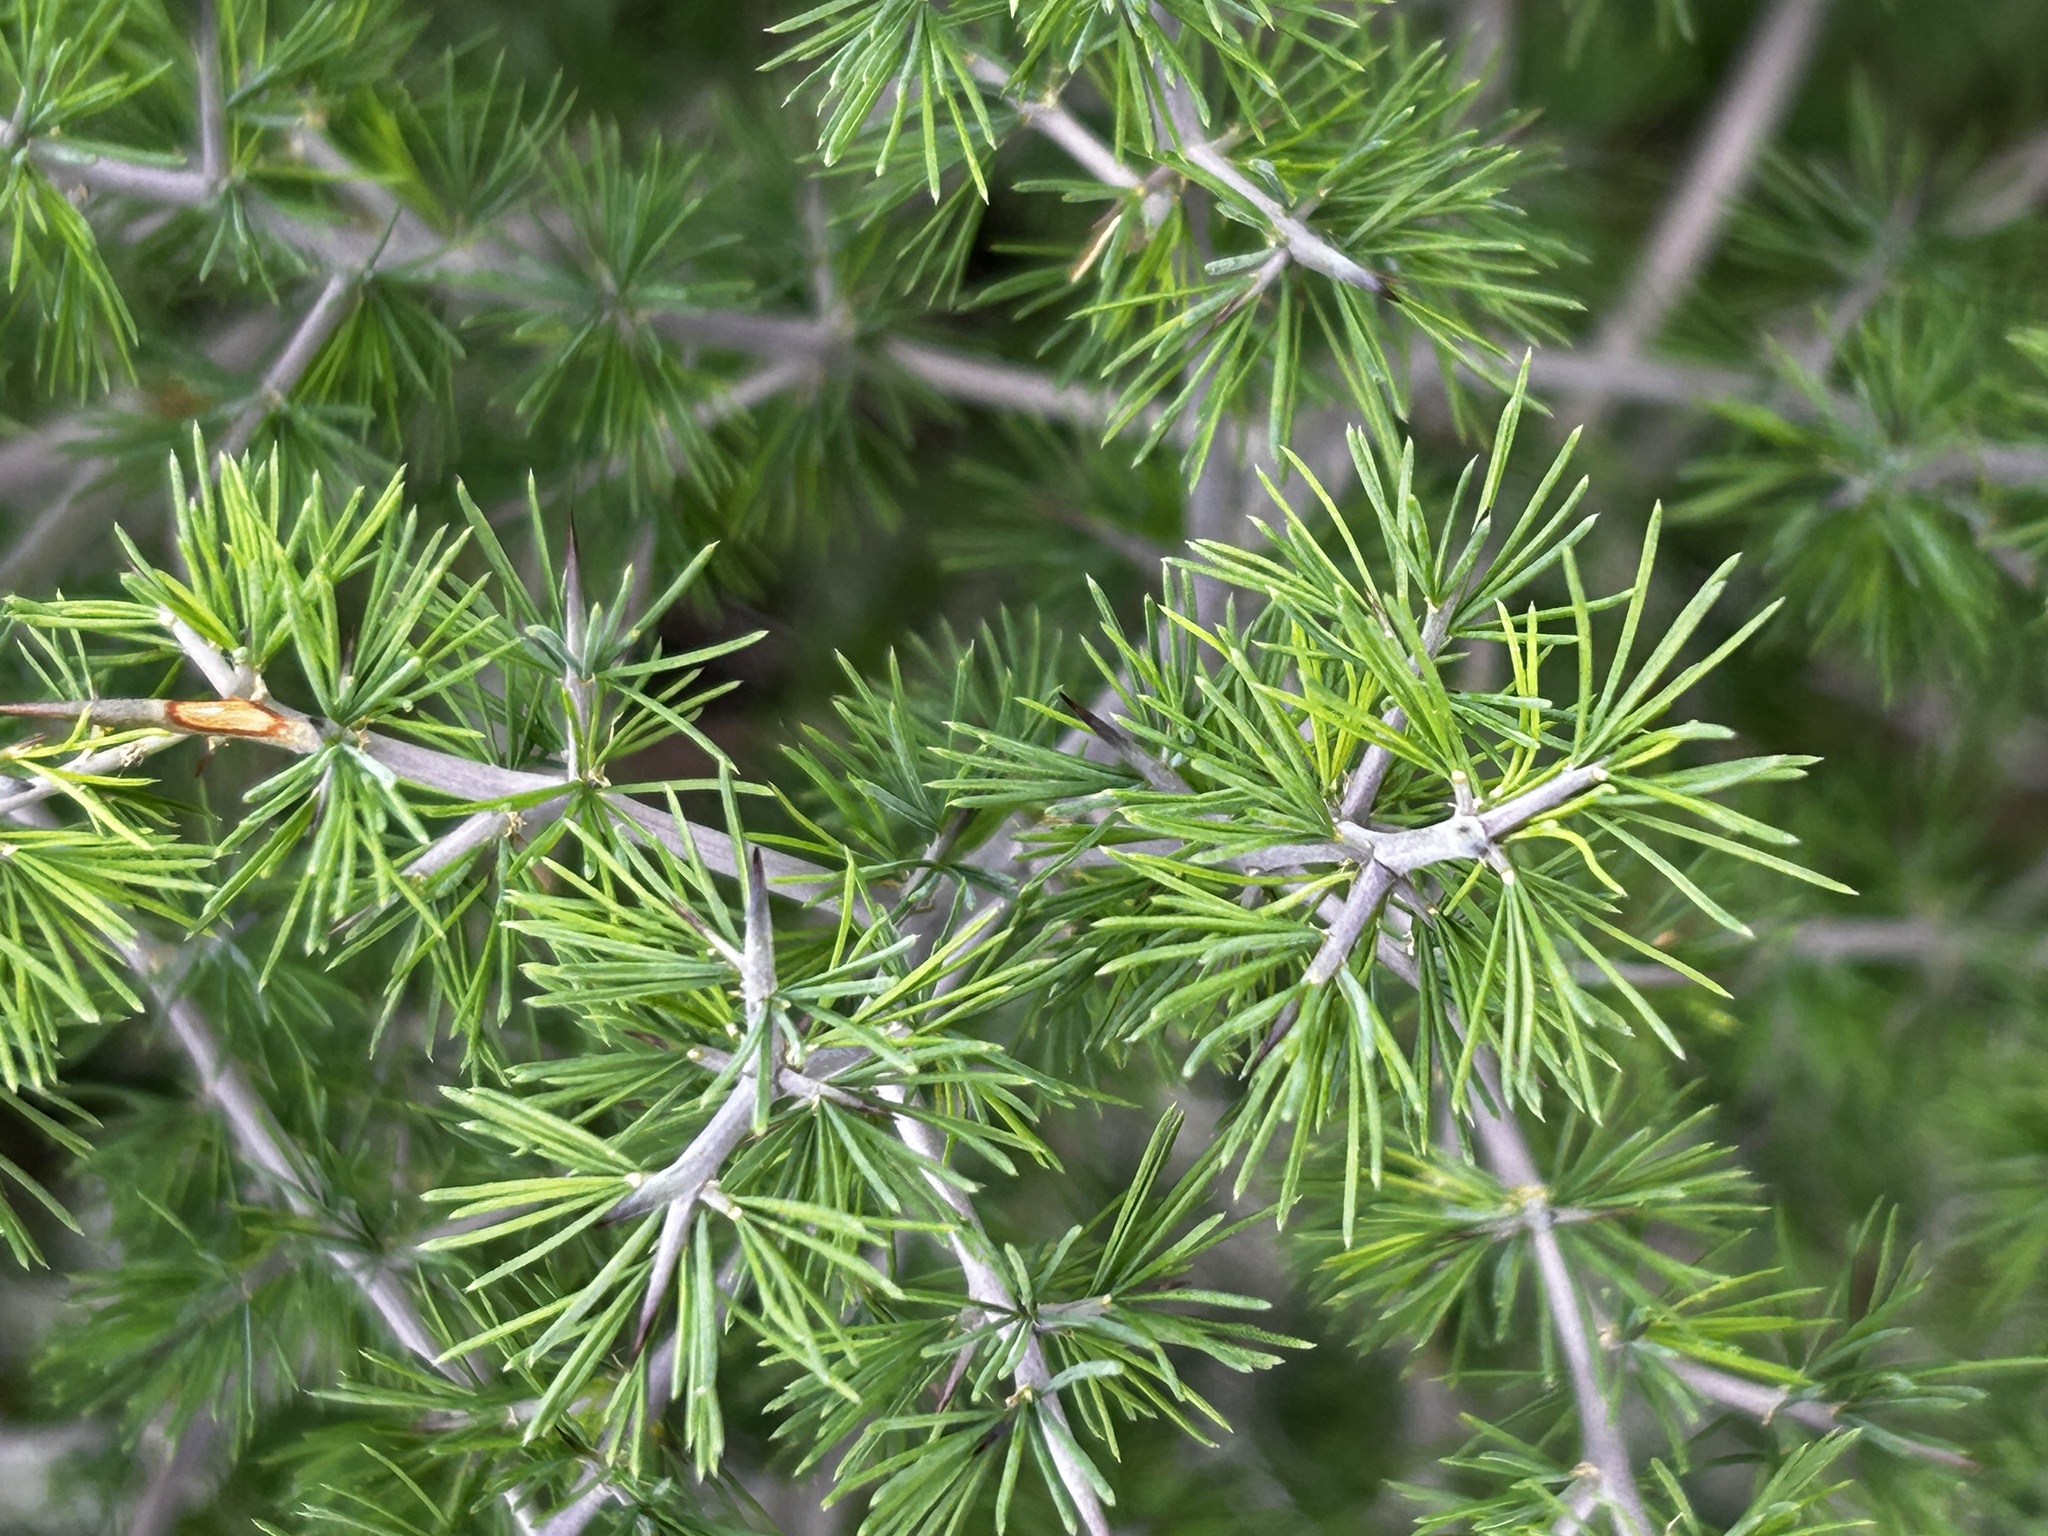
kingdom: Plantae
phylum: Tracheophyta
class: Liliopsida
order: Asparagales
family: Asparagaceae
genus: Asparagus
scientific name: Asparagus mariae
